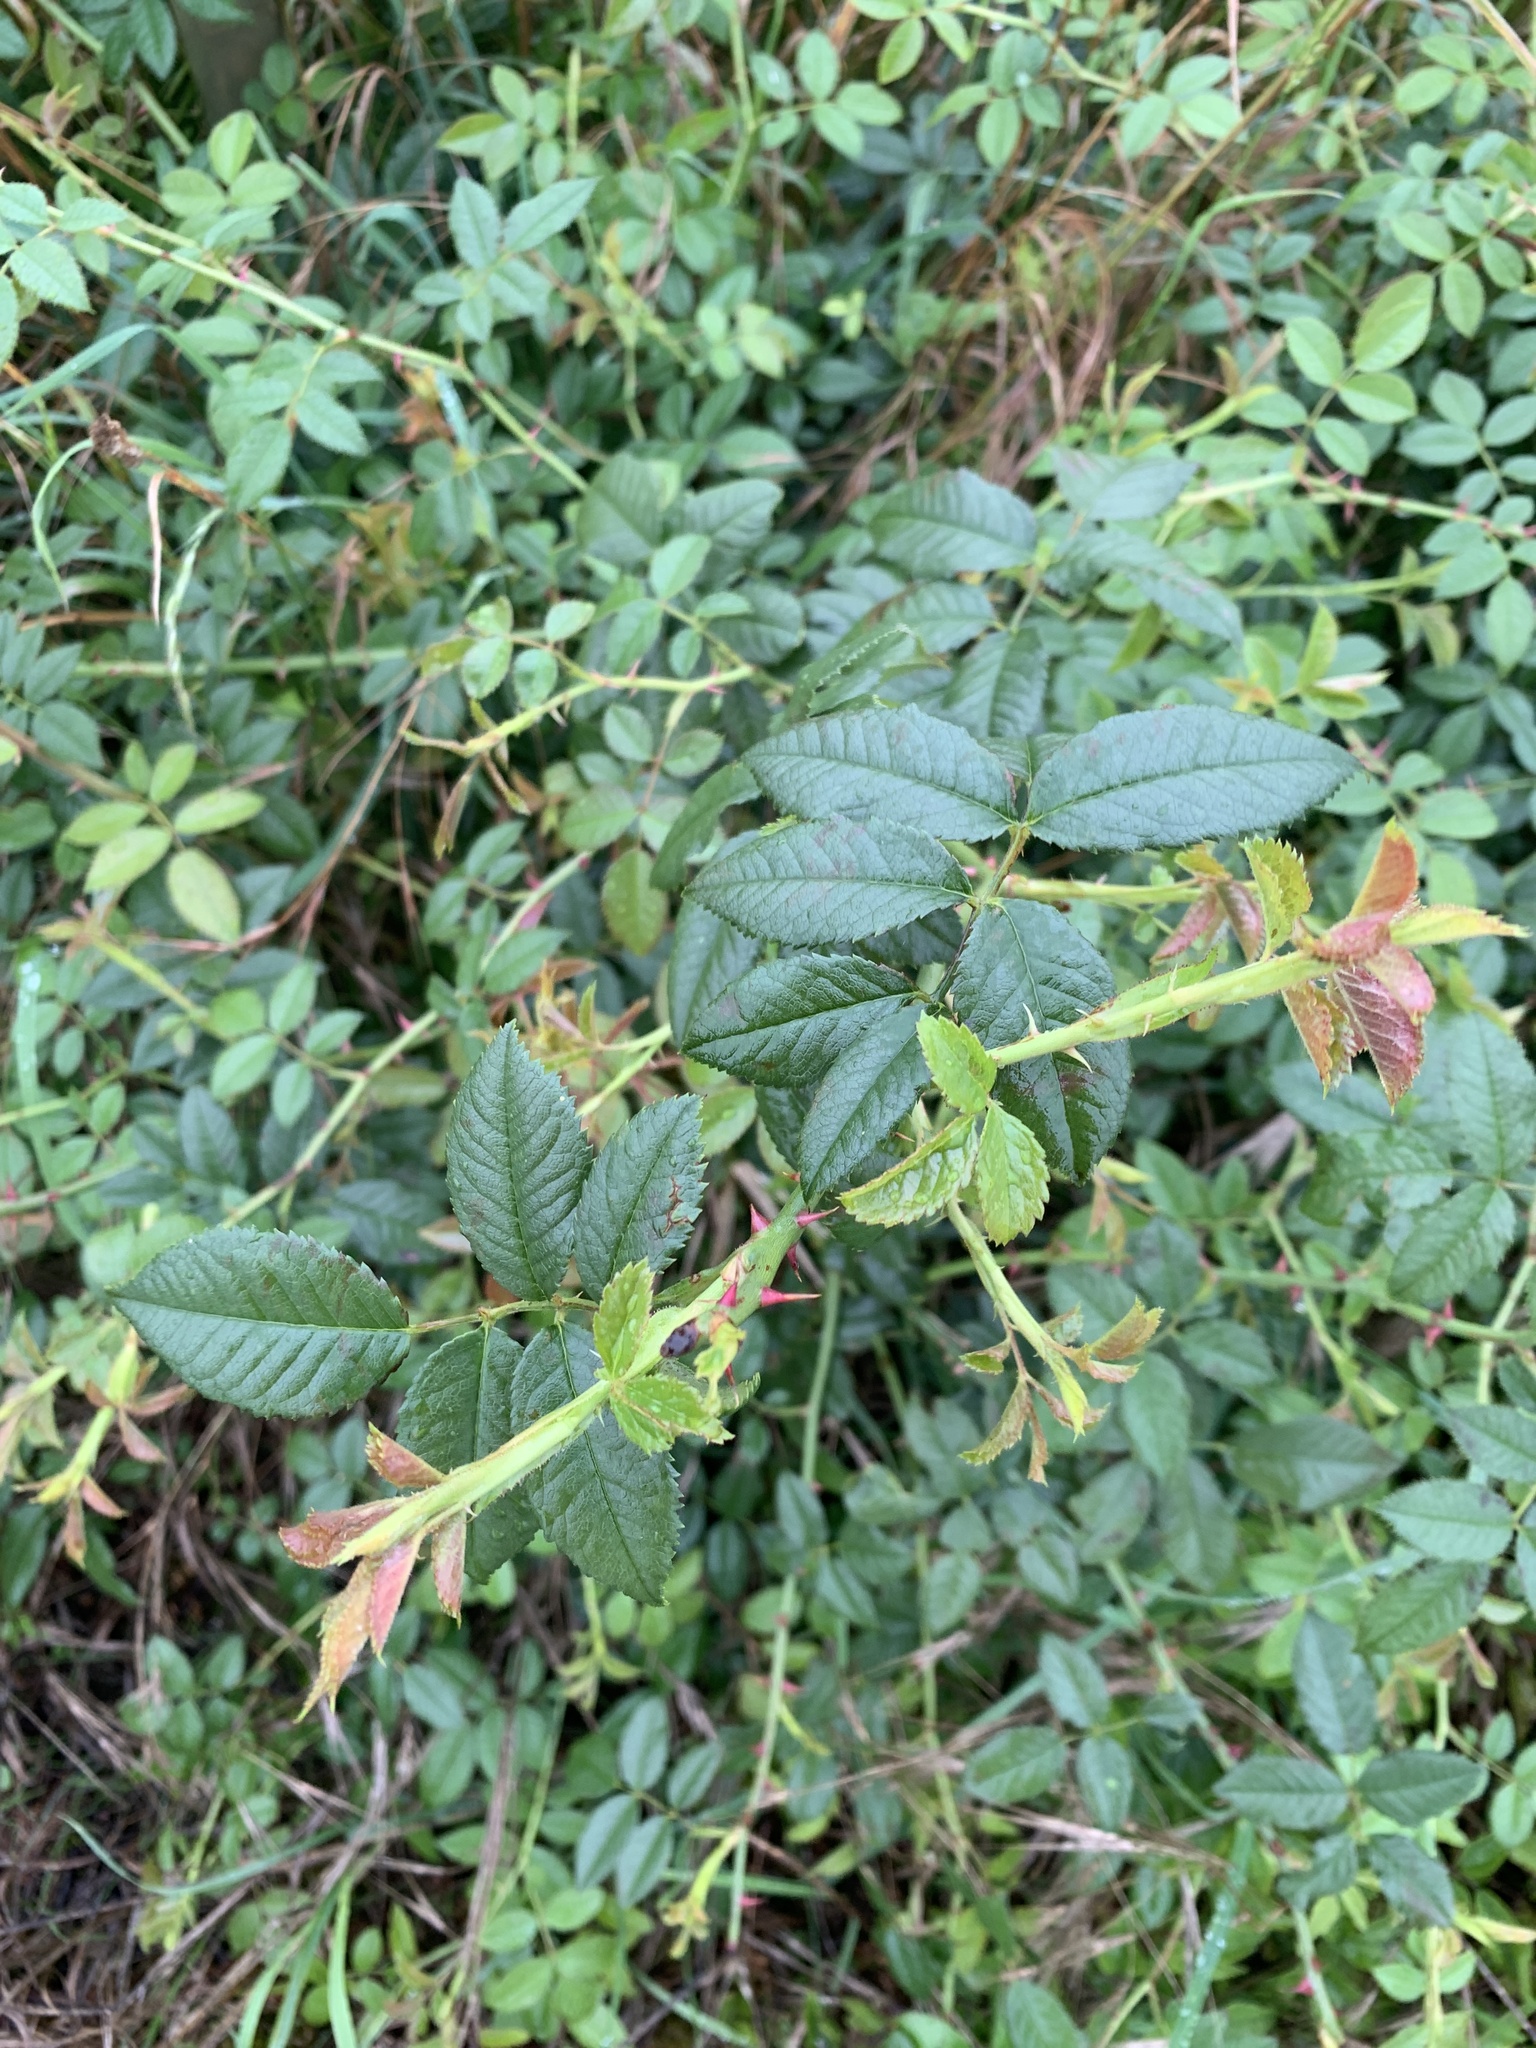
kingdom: Plantae
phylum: Tracheophyta
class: Magnoliopsida
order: Rosales
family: Rosaceae
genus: Rosa
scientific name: Rosa canina
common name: Dog rose
